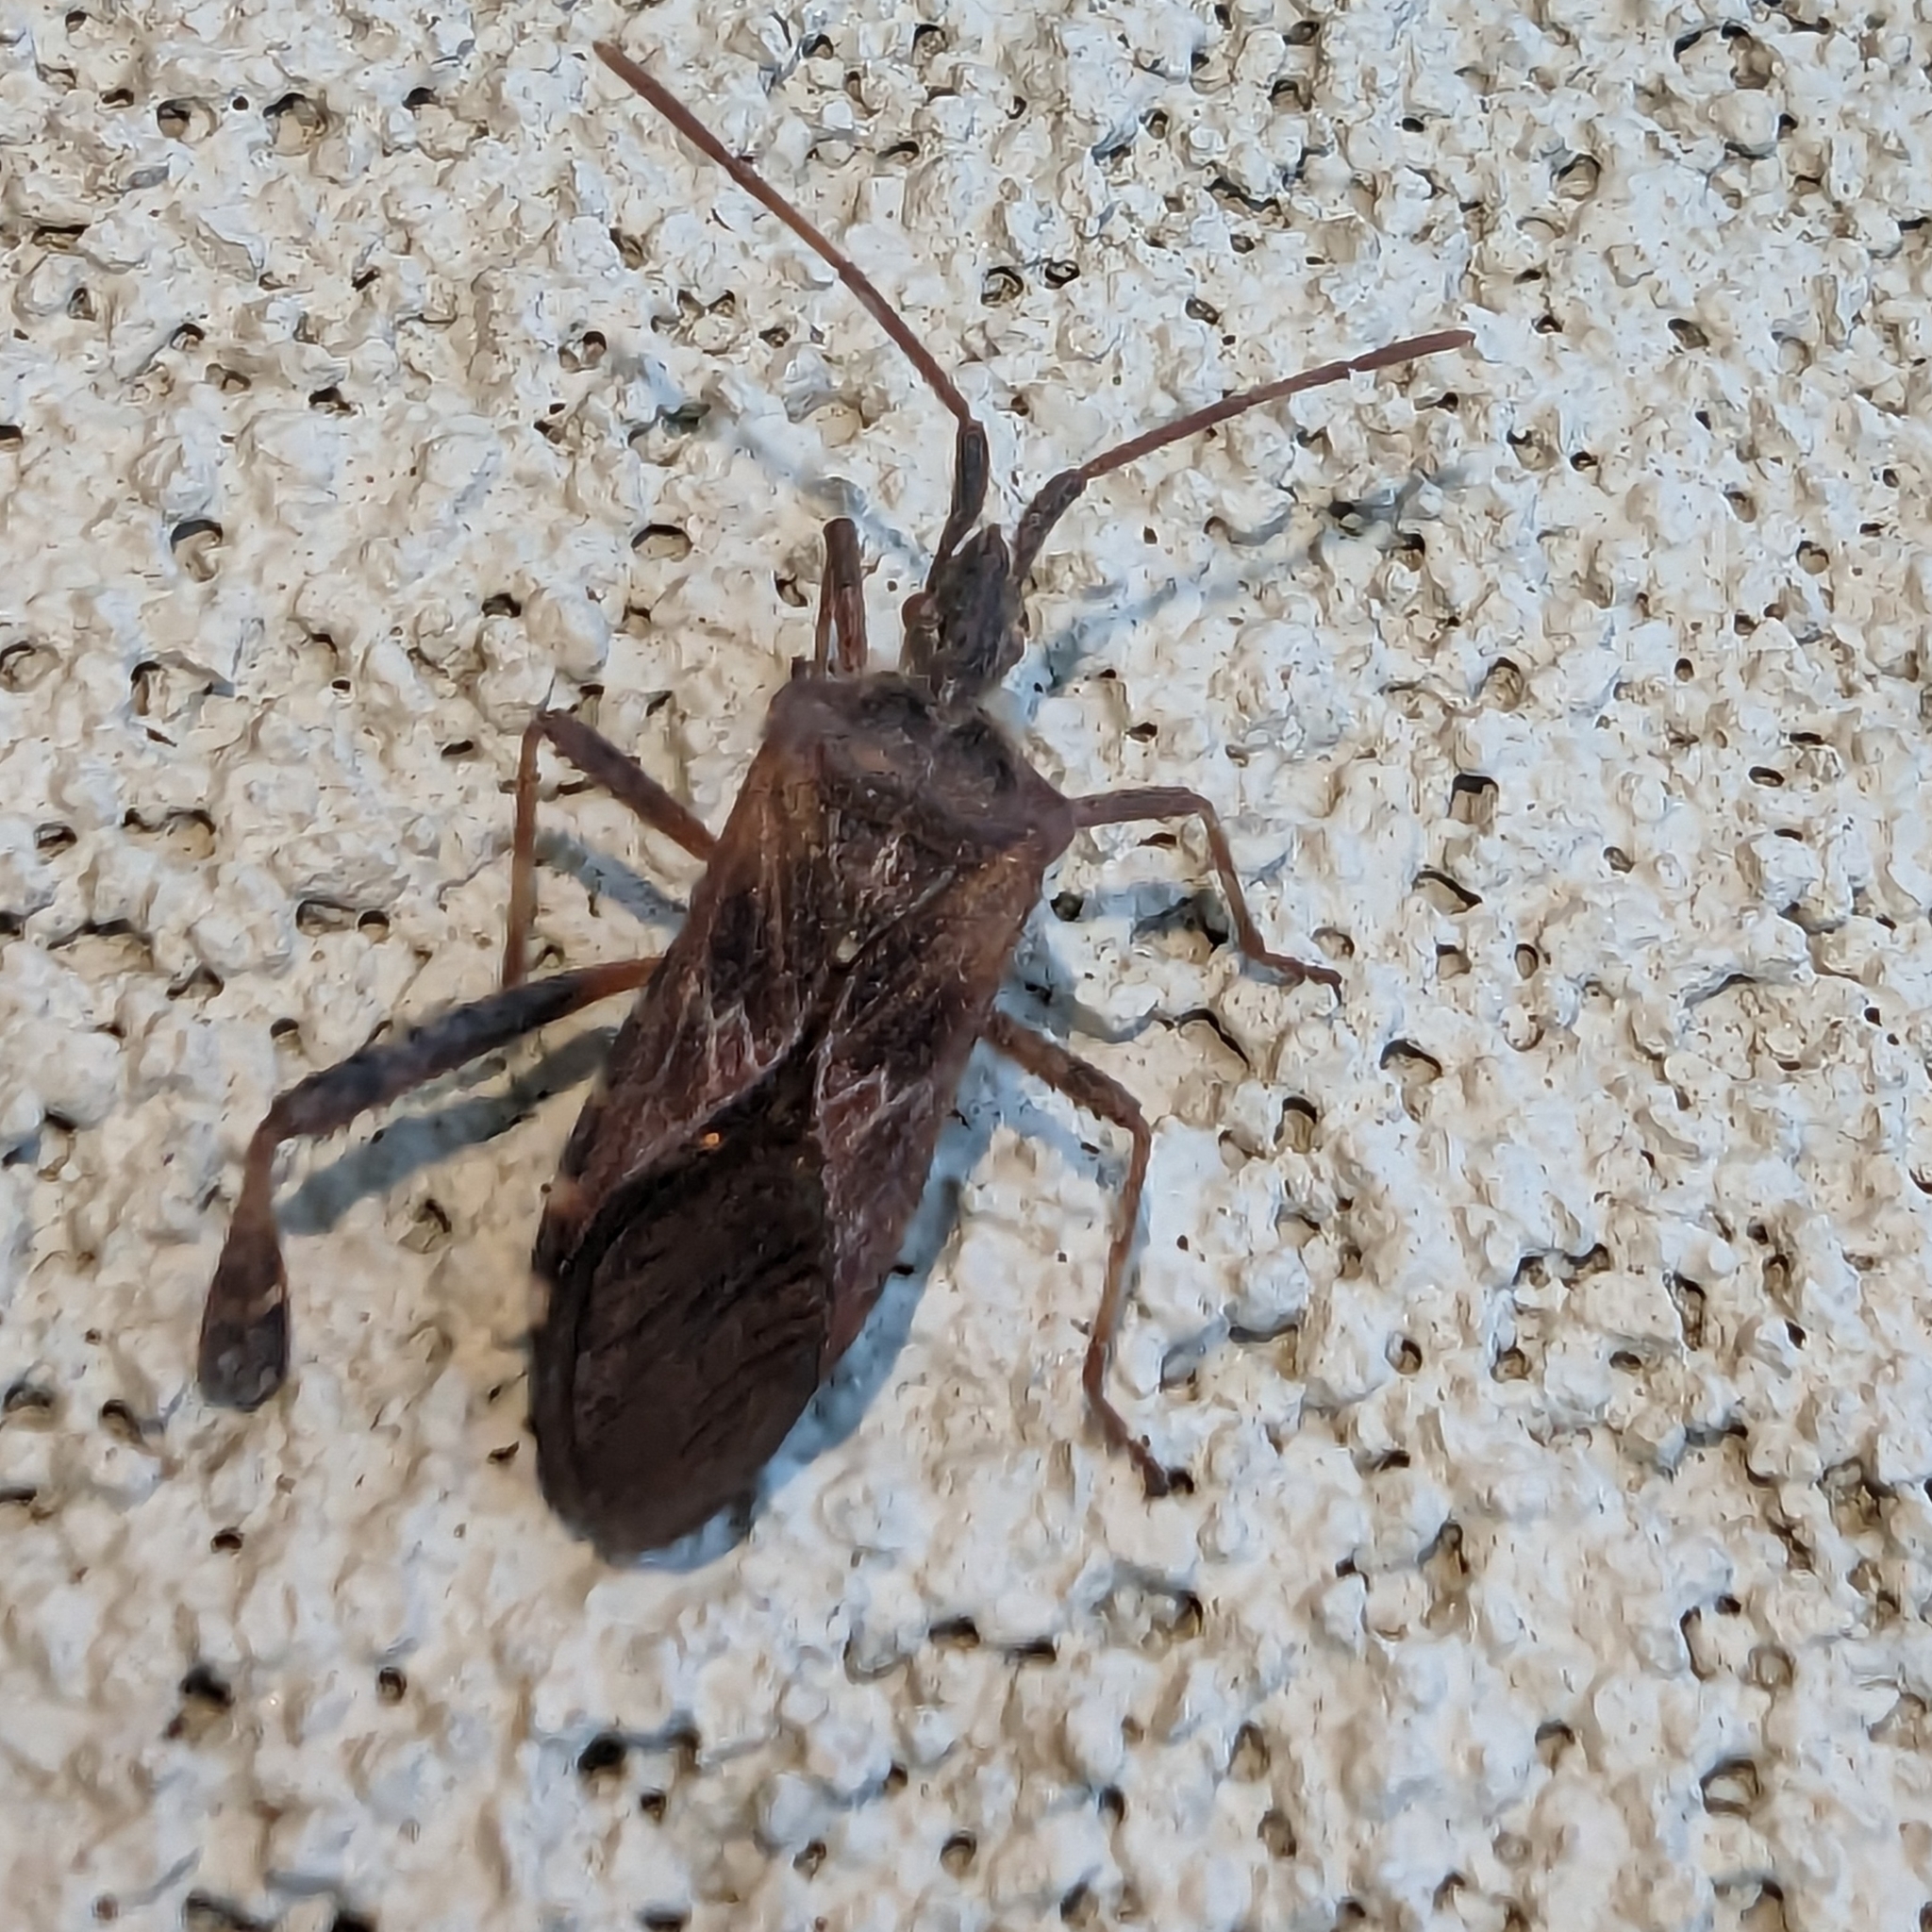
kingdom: Animalia
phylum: Arthropoda
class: Insecta
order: Hemiptera
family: Coreidae
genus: Leptoglossus
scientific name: Leptoglossus occidentalis
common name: Western conifer-seed bug
